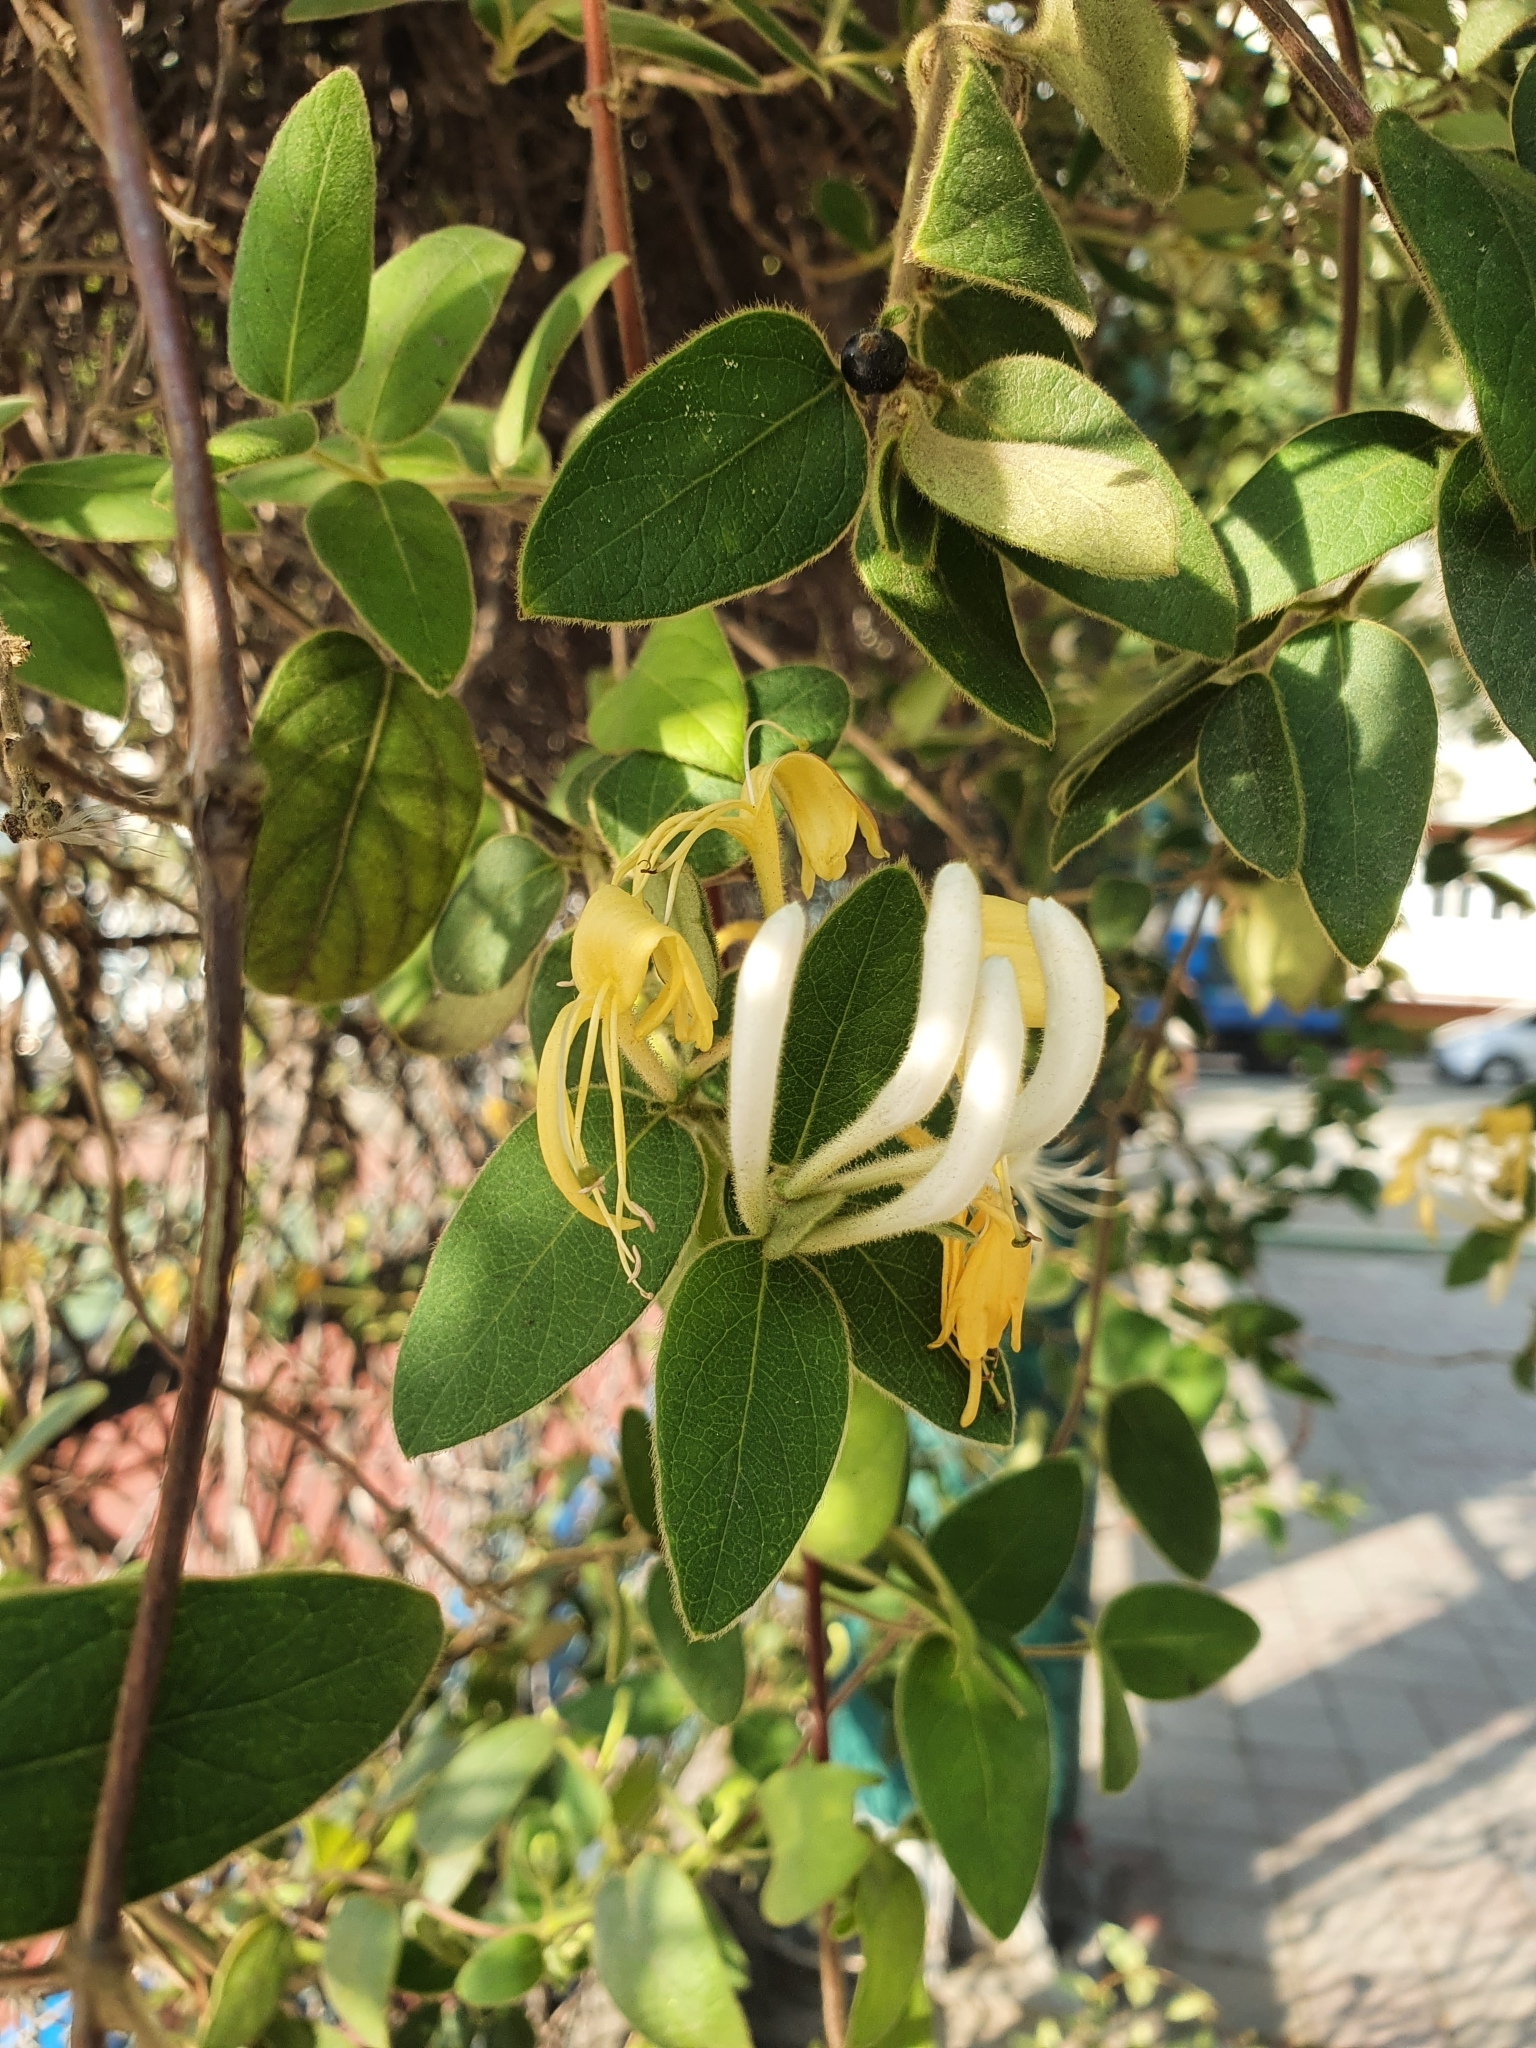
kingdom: Plantae
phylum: Tracheophyta
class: Magnoliopsida
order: Dipsacales
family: Caprifoliaceae
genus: Lonicera
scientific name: Lonicera japonica
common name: Japanese honeysuckle
